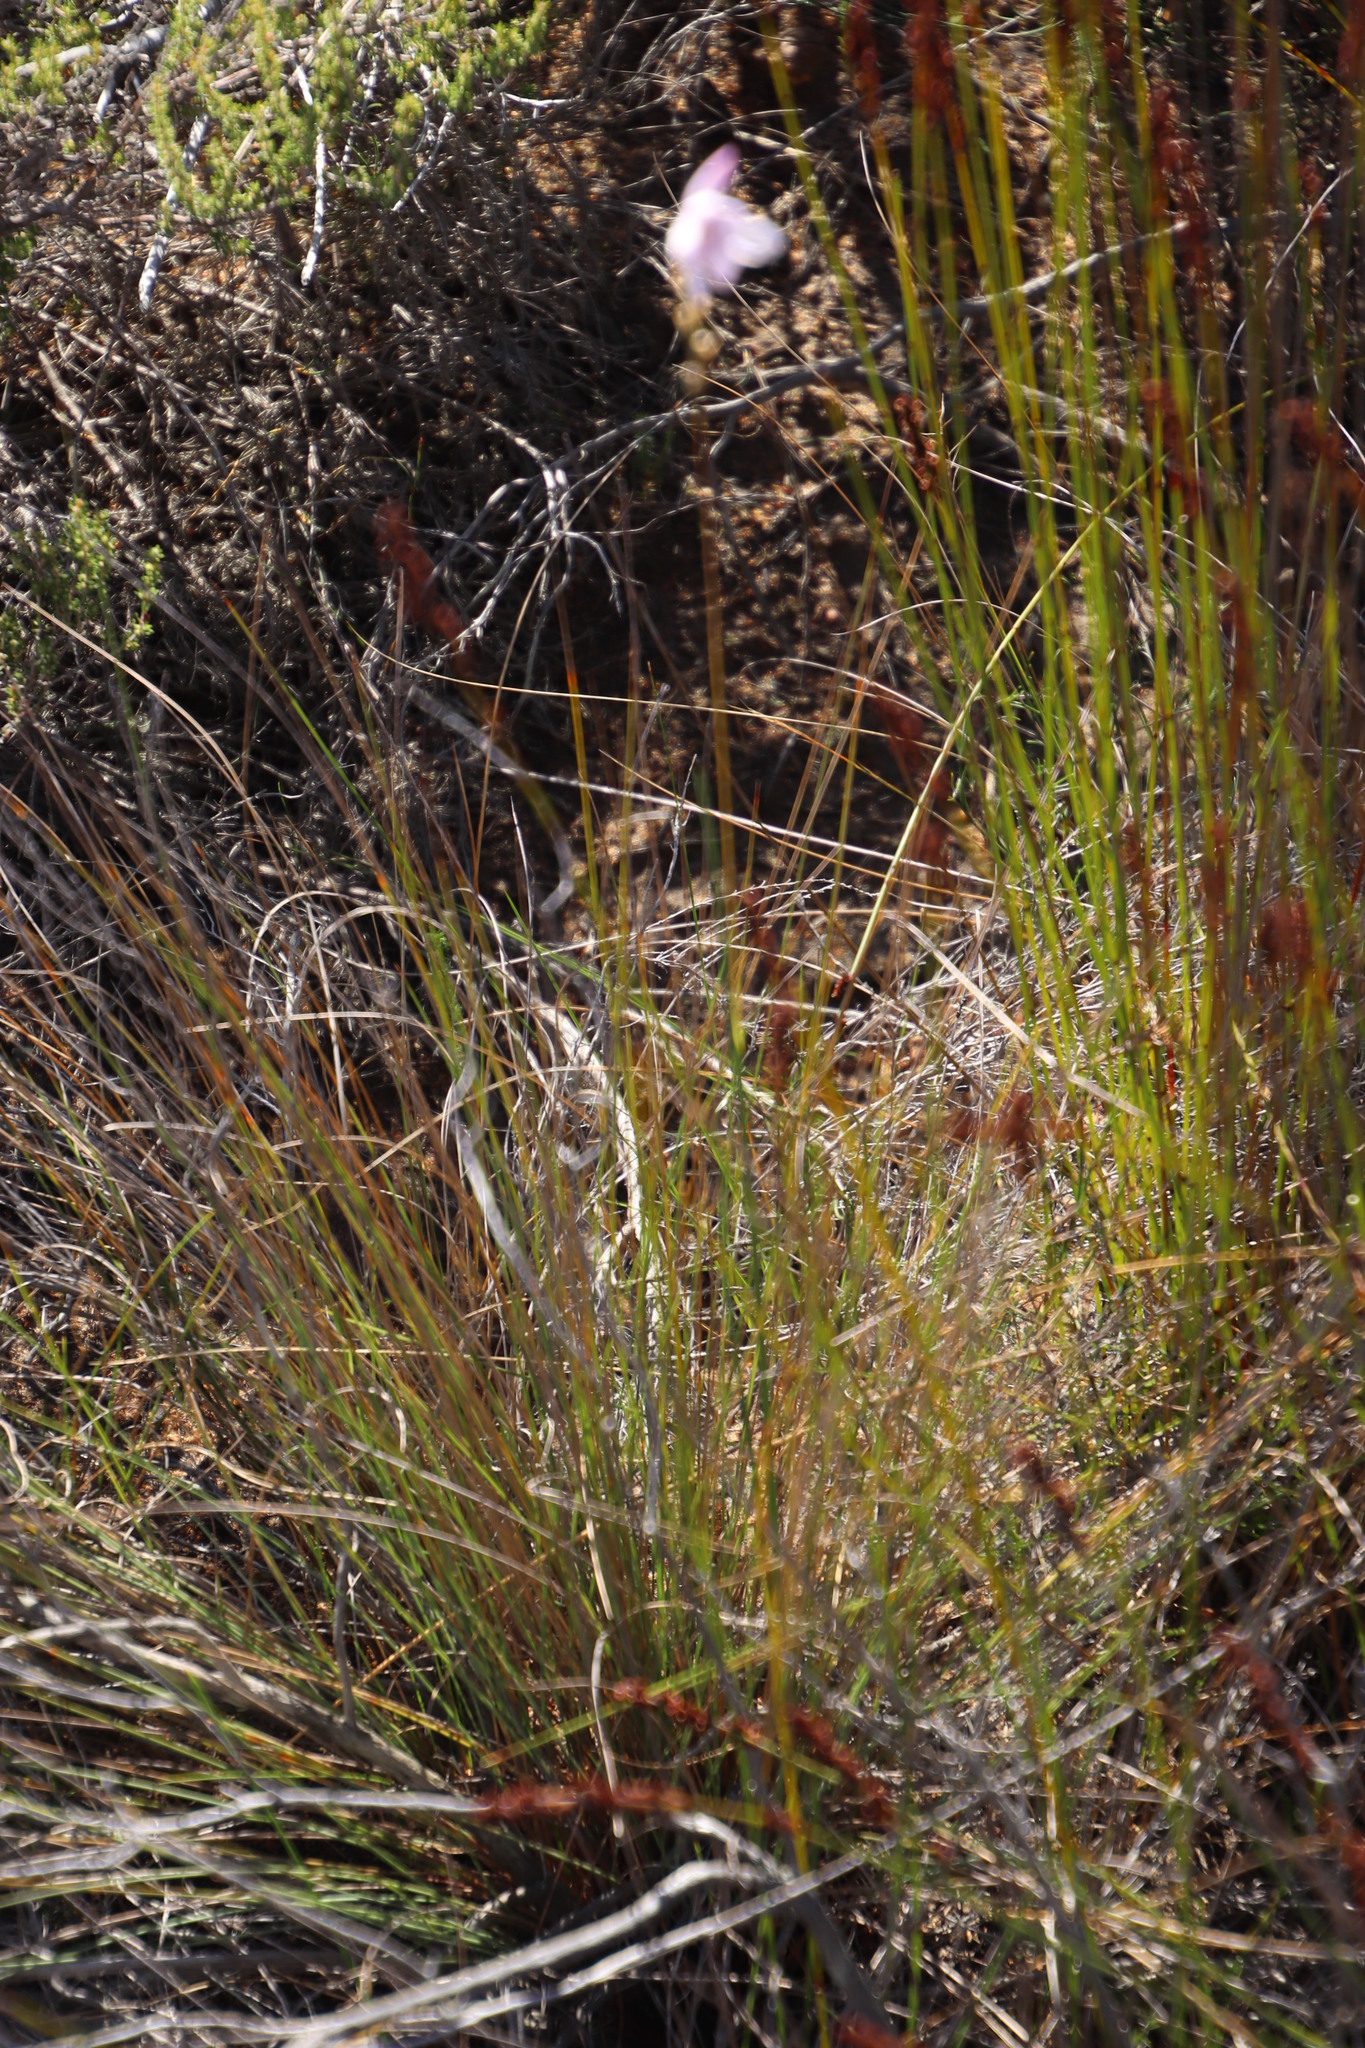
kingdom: Plantae
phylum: Tracheophyta
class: Liliopsida
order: Asparagales
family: Iridaceae
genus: Ixia
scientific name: Ixia micrandra
